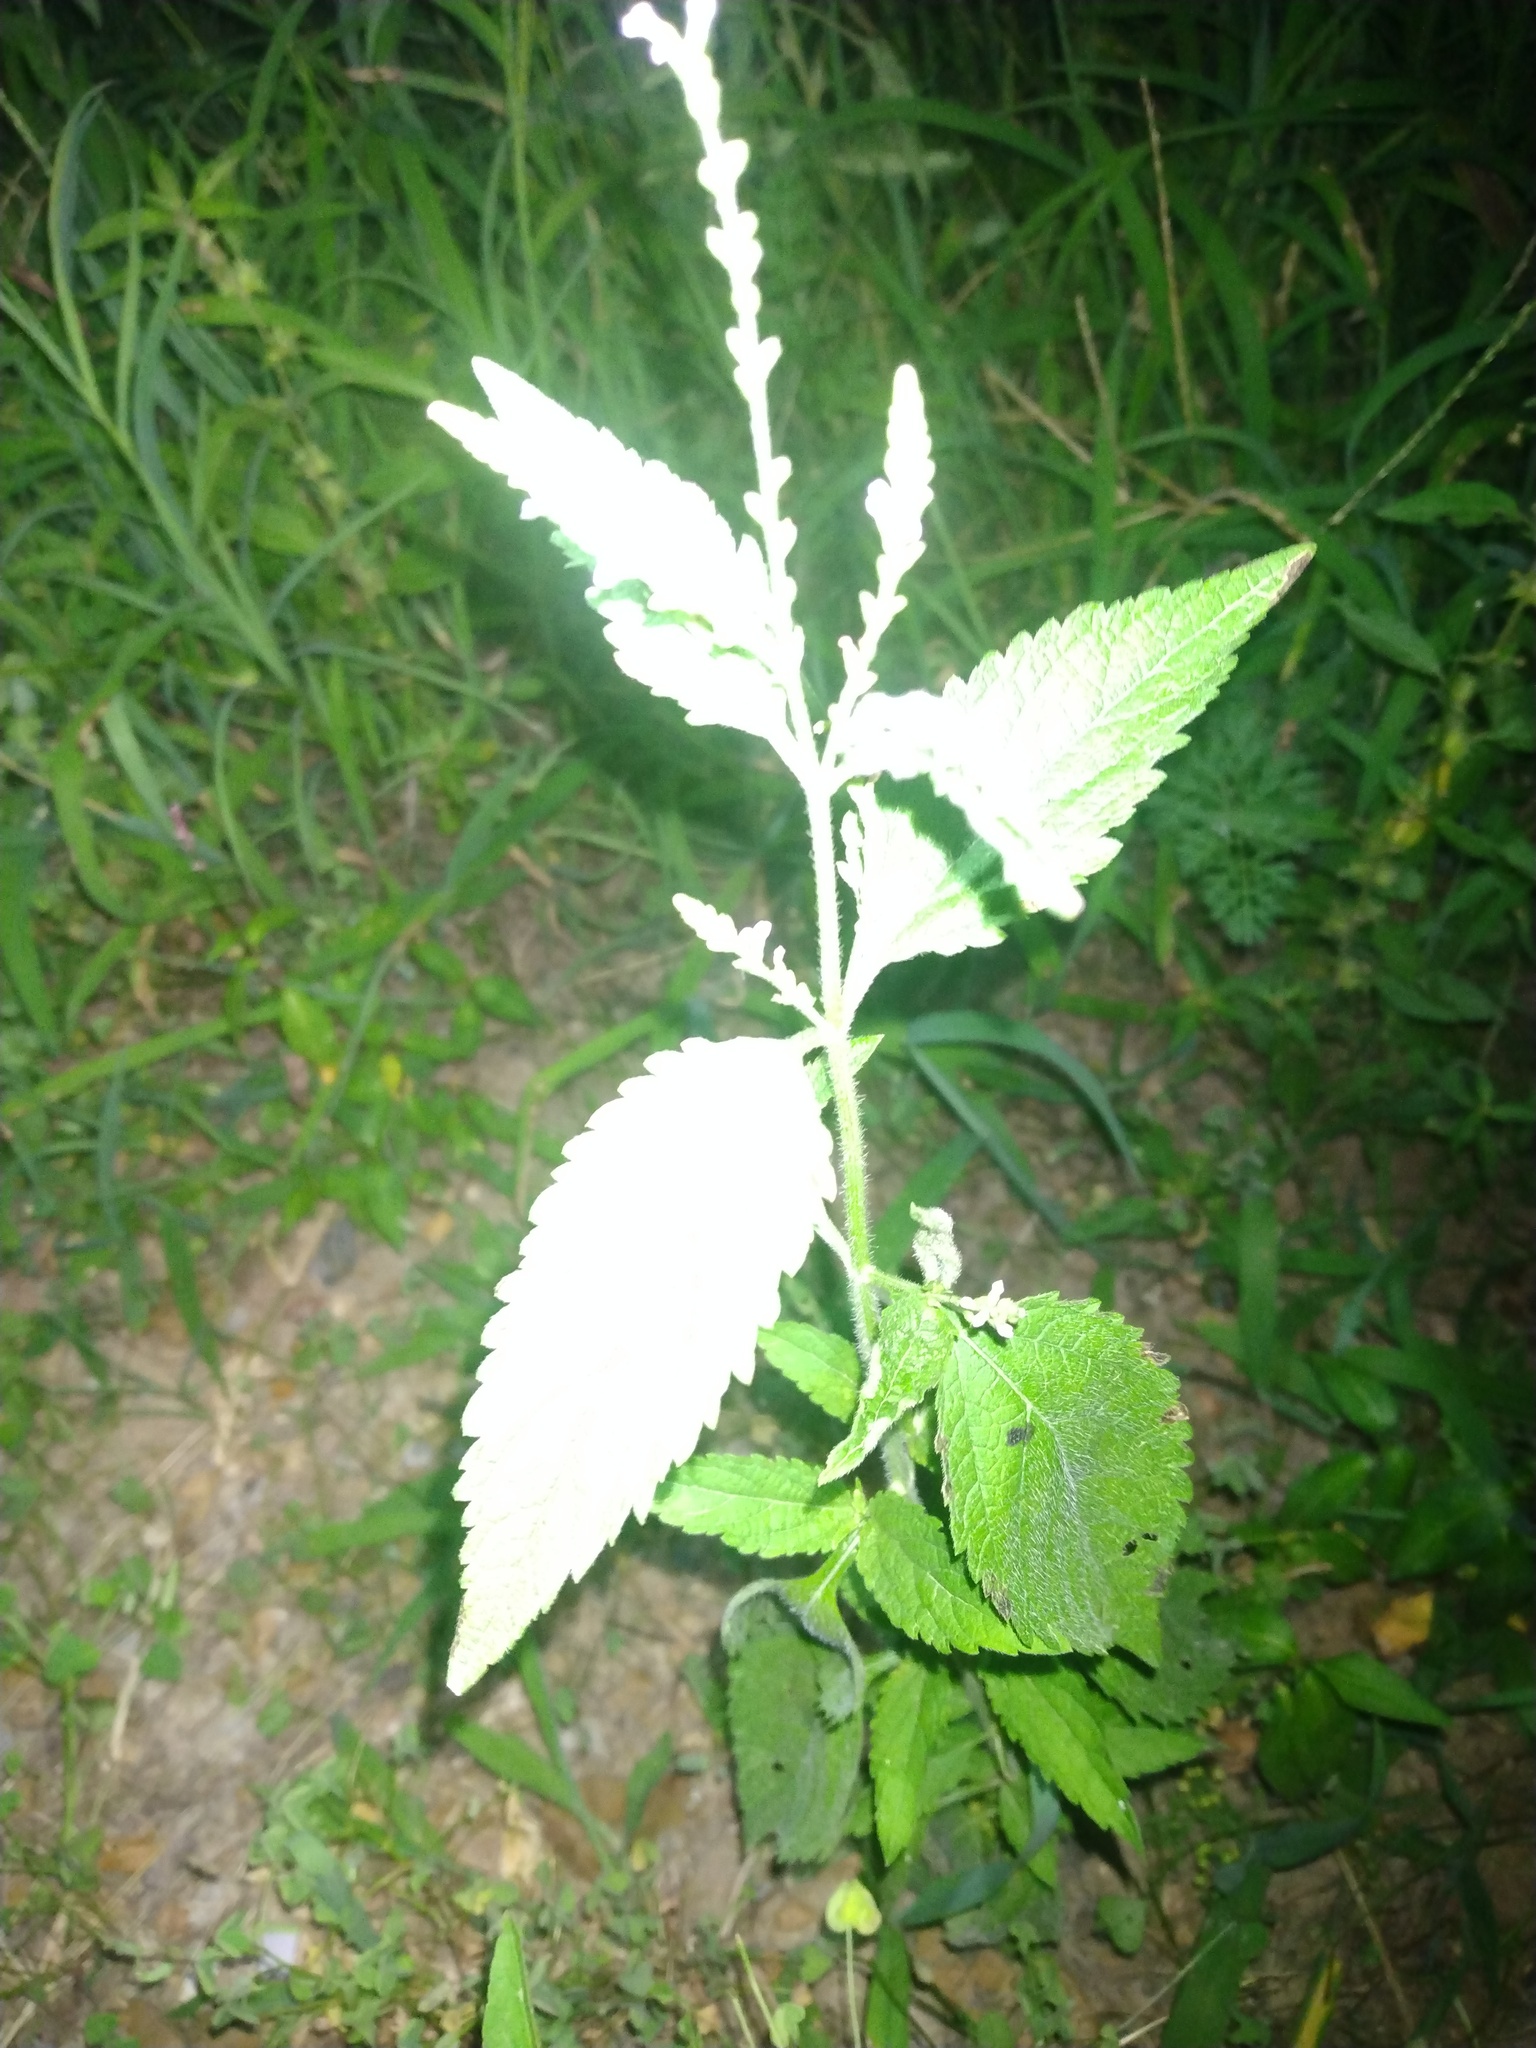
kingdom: Plantae
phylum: Tracheophyta
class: Magnoliopsida
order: Lamiales
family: Verbenaceae
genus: Verbena
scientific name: Verbena urticifolia
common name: Nettle-leaved vervain
